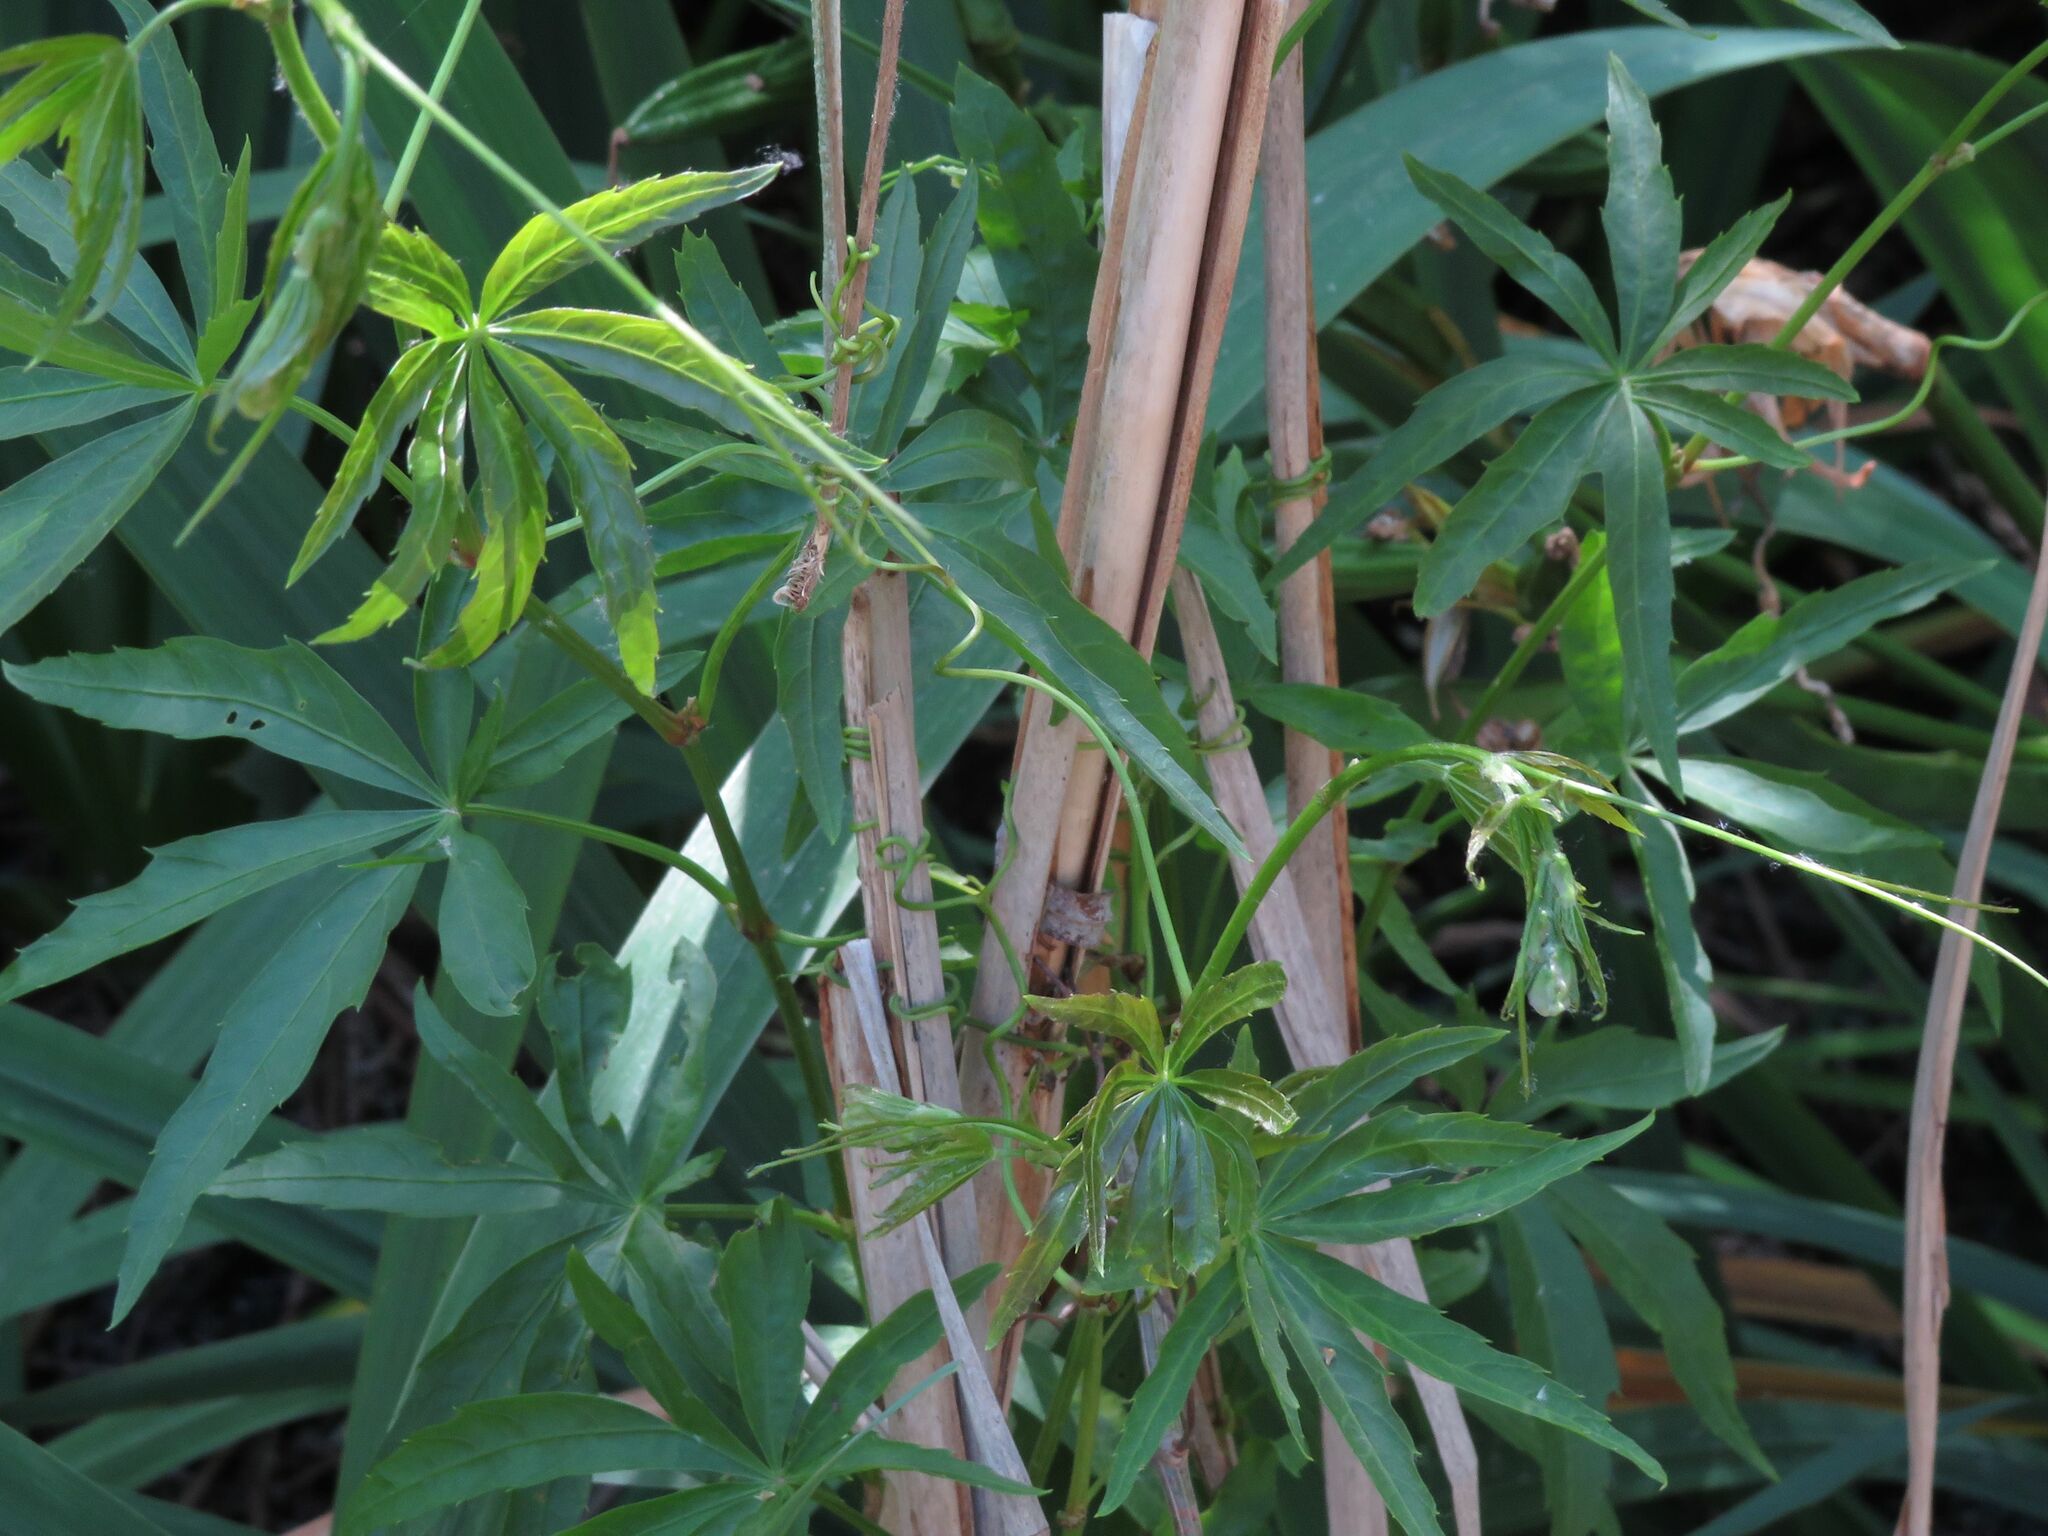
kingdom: Plantae
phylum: Tracheophyta
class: Magnoliopsida
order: Vitales
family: Vitaceae
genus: Cissus
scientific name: Cissus palmata
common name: Grape
